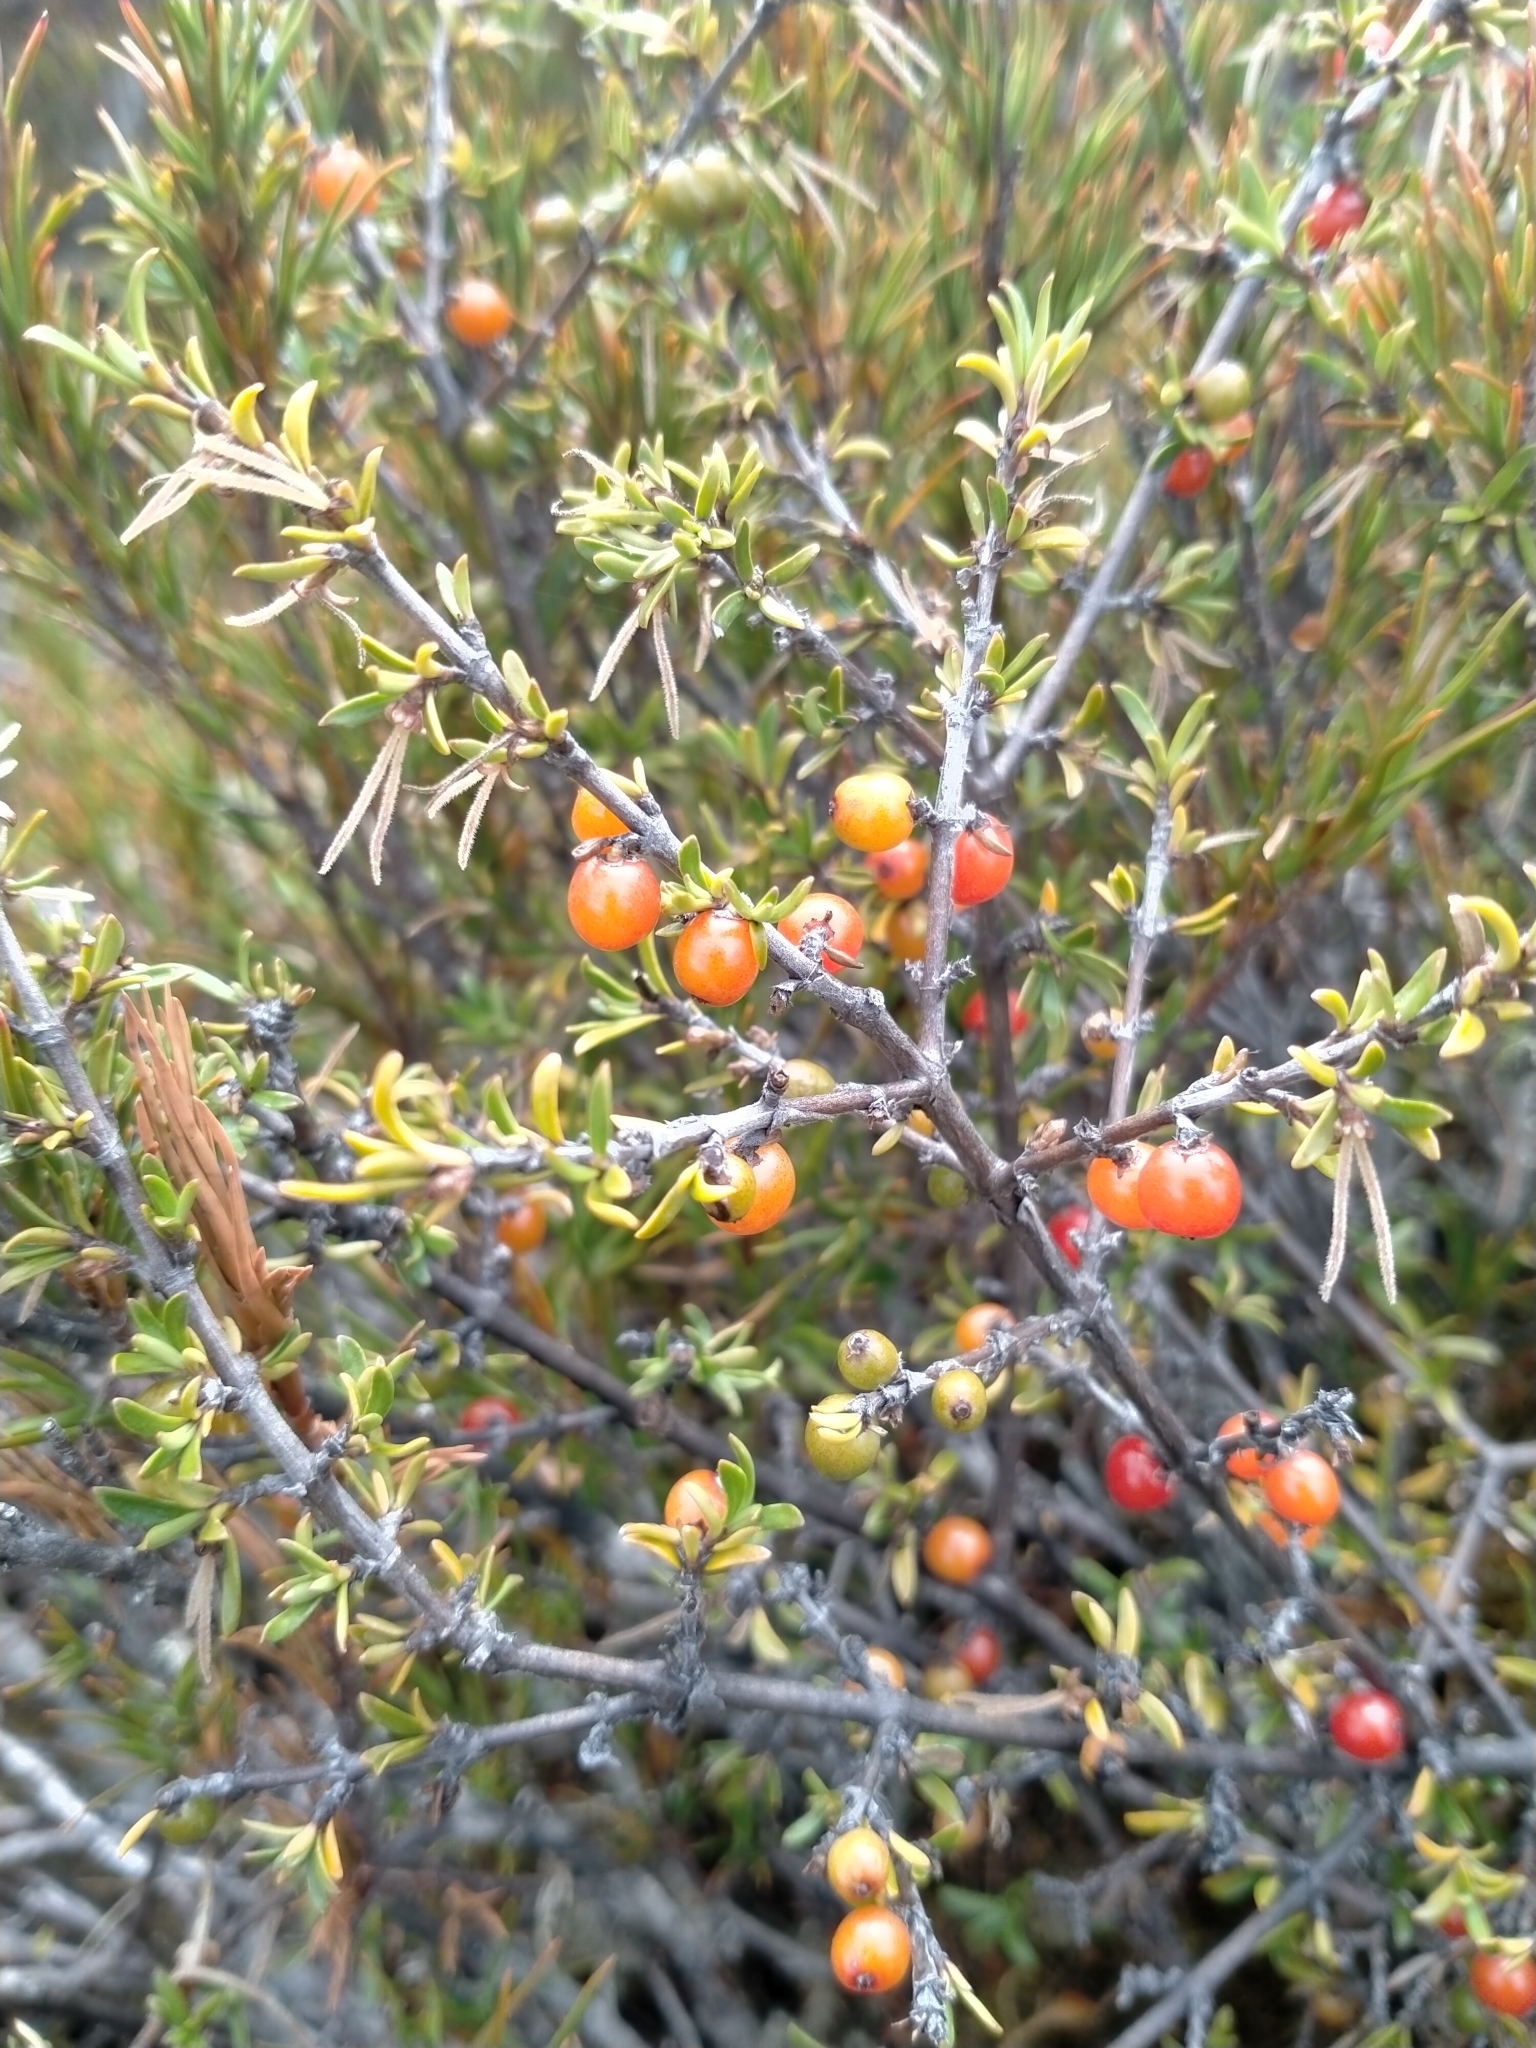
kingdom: Plantae
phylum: Tracheophyta
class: Magnoliopsida
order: Gentianales
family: Rubiaceae
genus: Coprosma
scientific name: Coprosma cheesemanii
